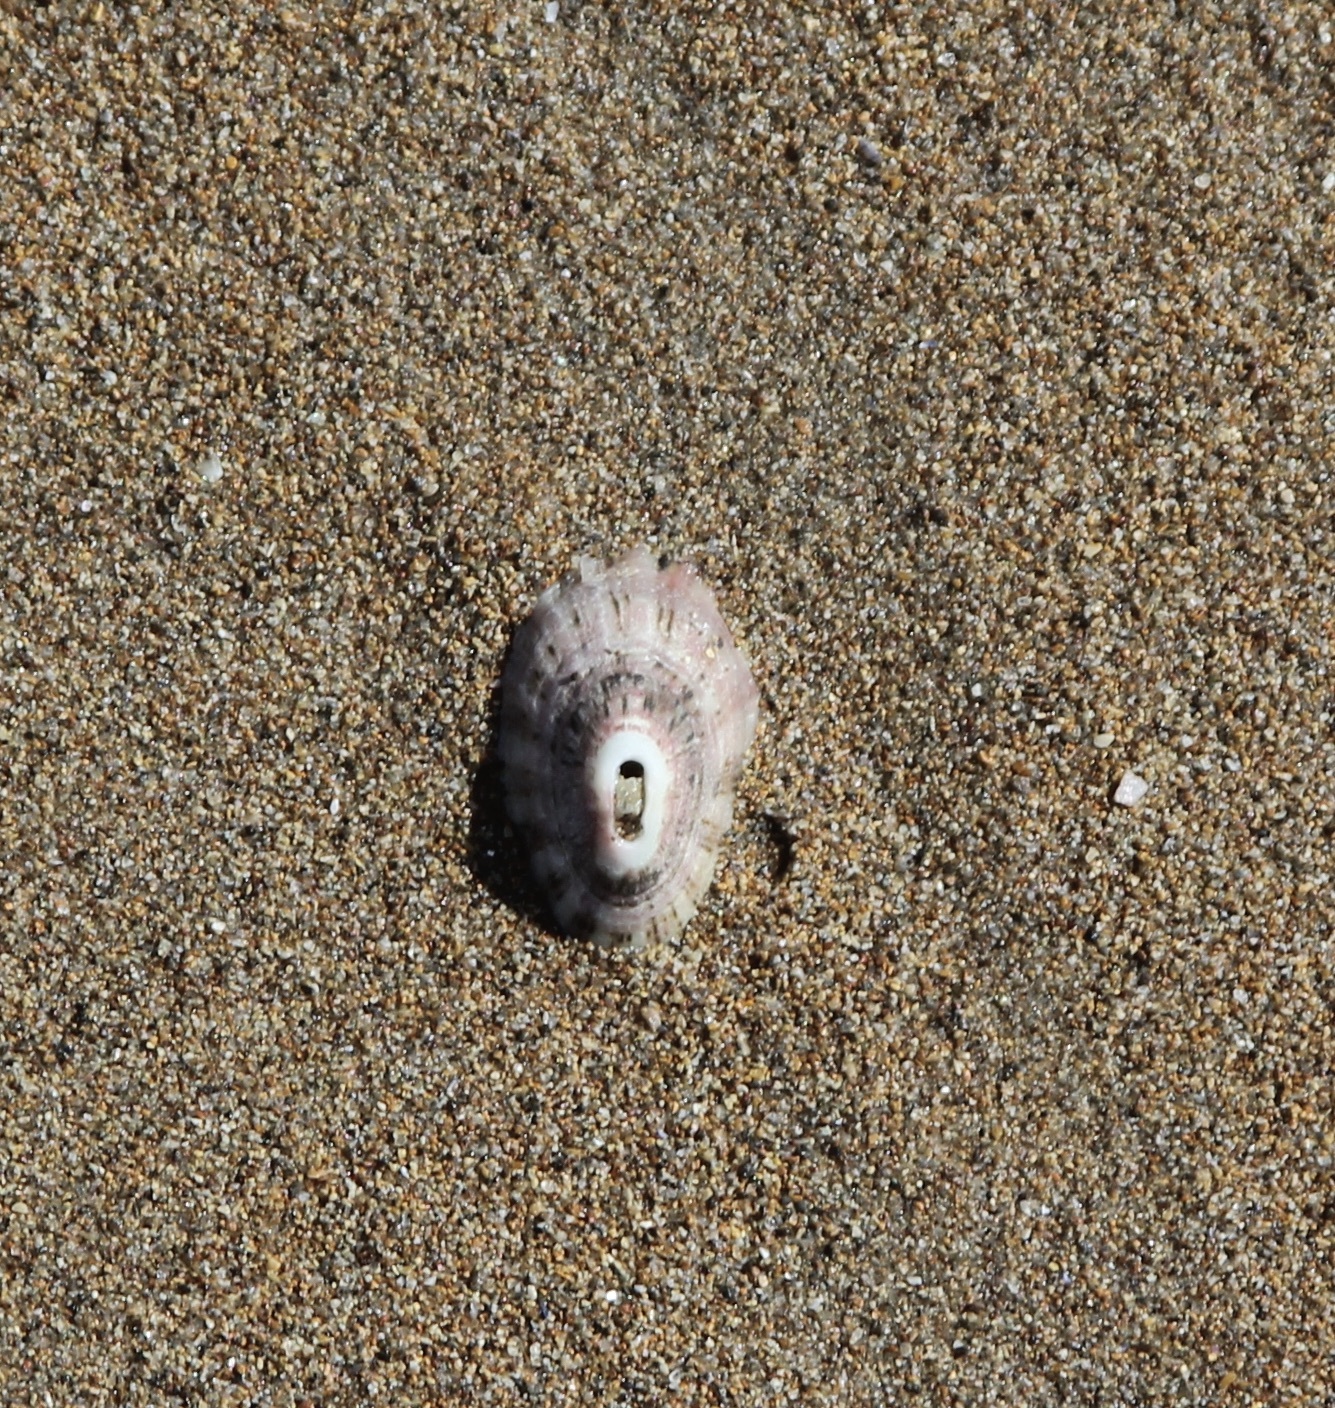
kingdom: Animalia
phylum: Mollusca
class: Gastropoda
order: Lepetellida
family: Fissurellidae
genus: Fissurella
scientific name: Fissurella volcano
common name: Volcano keyhole limpet
